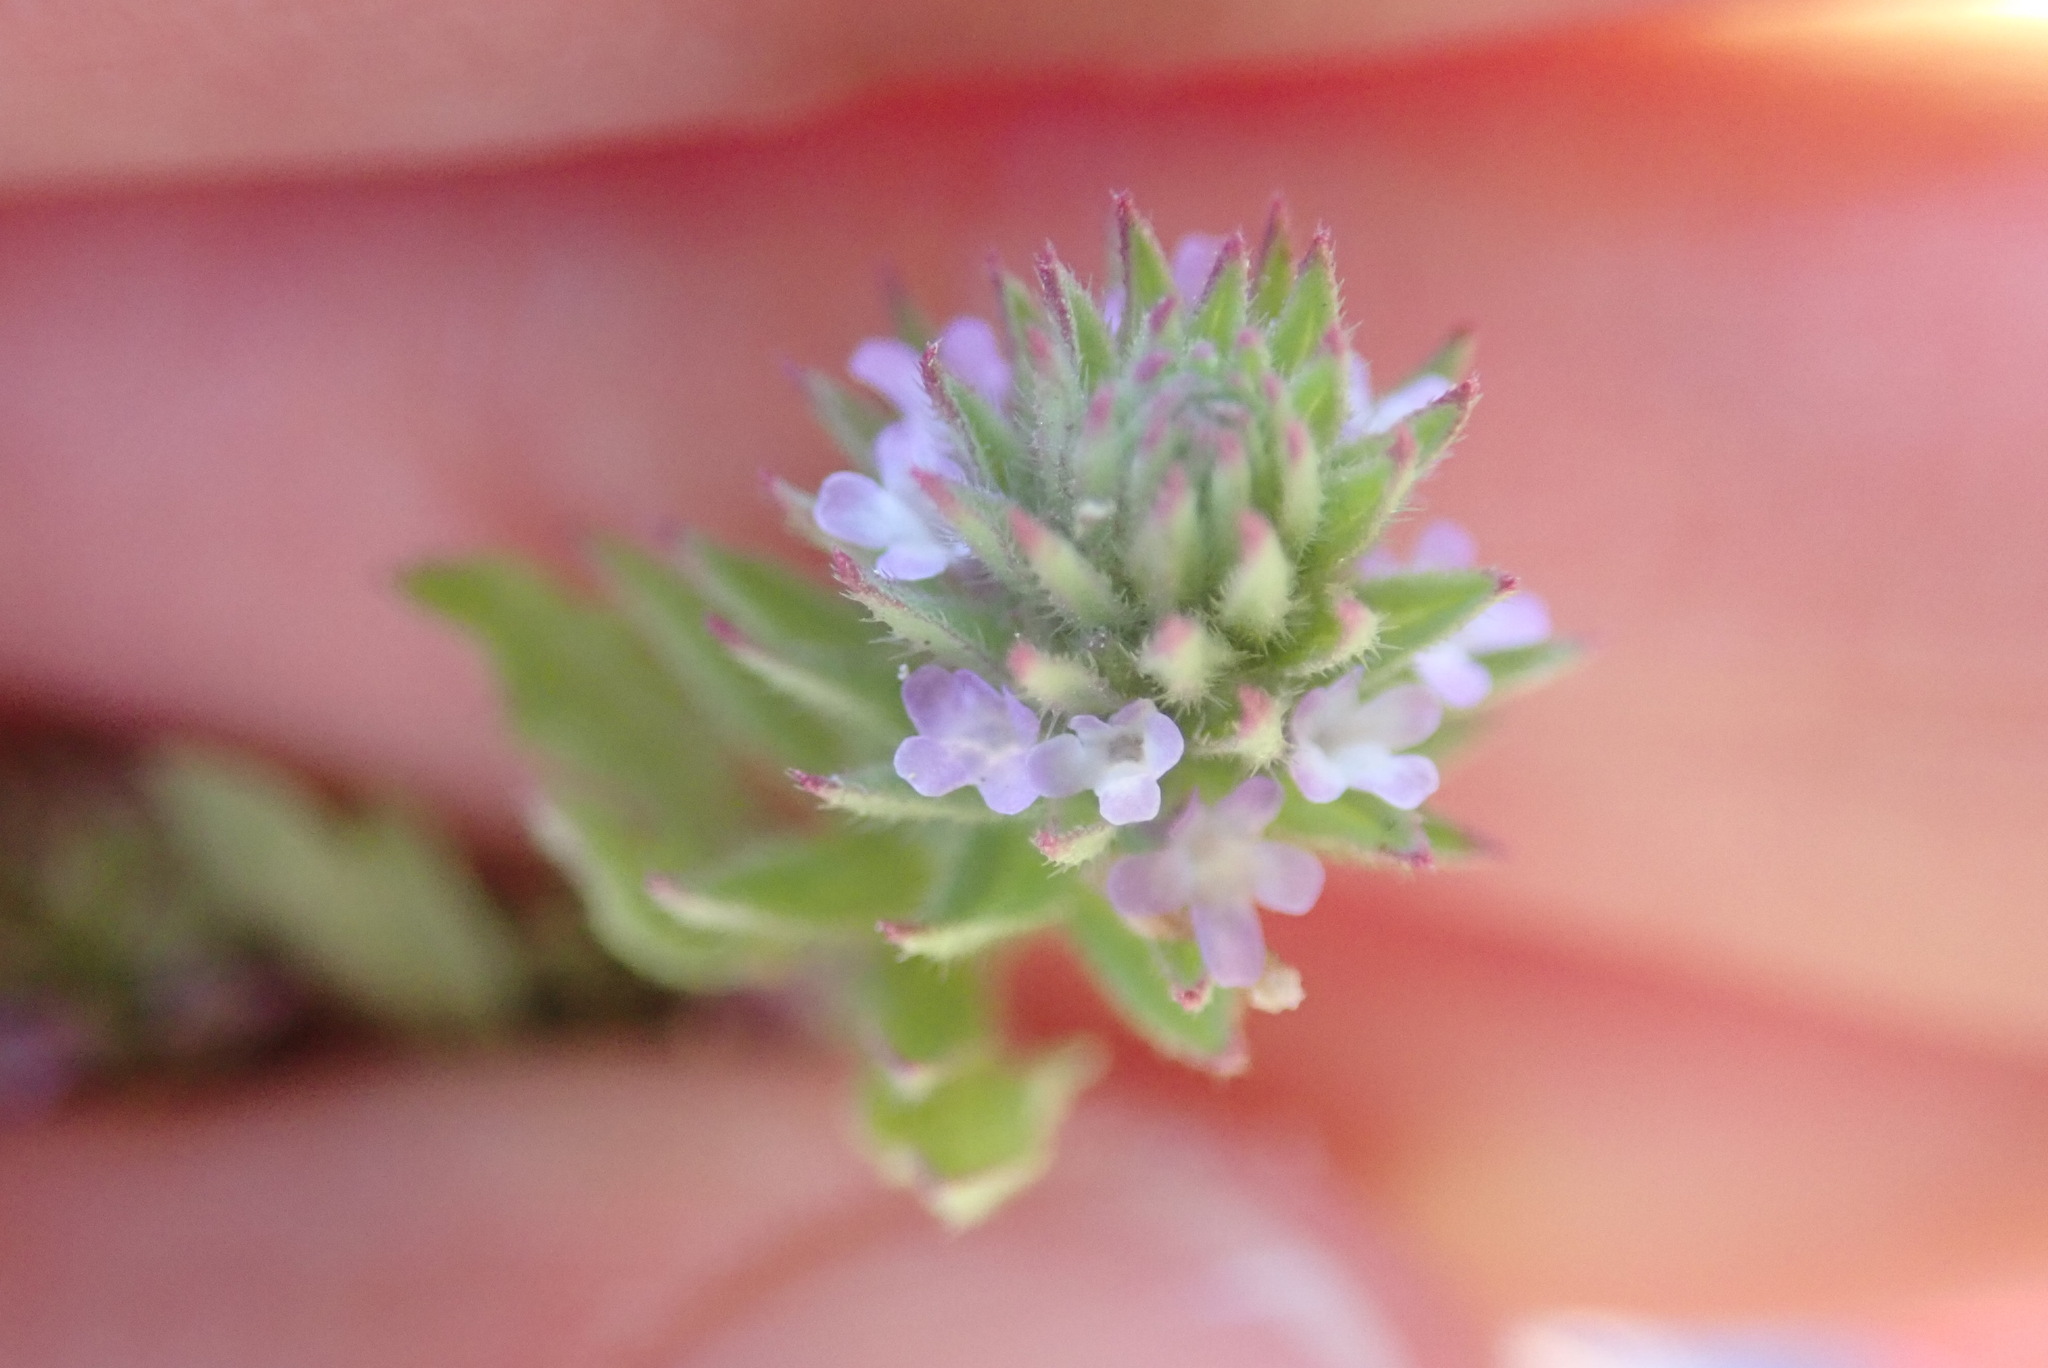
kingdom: Plantae
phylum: Tracheophyta
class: Magnoliopsida
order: Lamiales
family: Verbenaceae
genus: Verbena
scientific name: Verbena bracteata
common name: Bracted vervain
